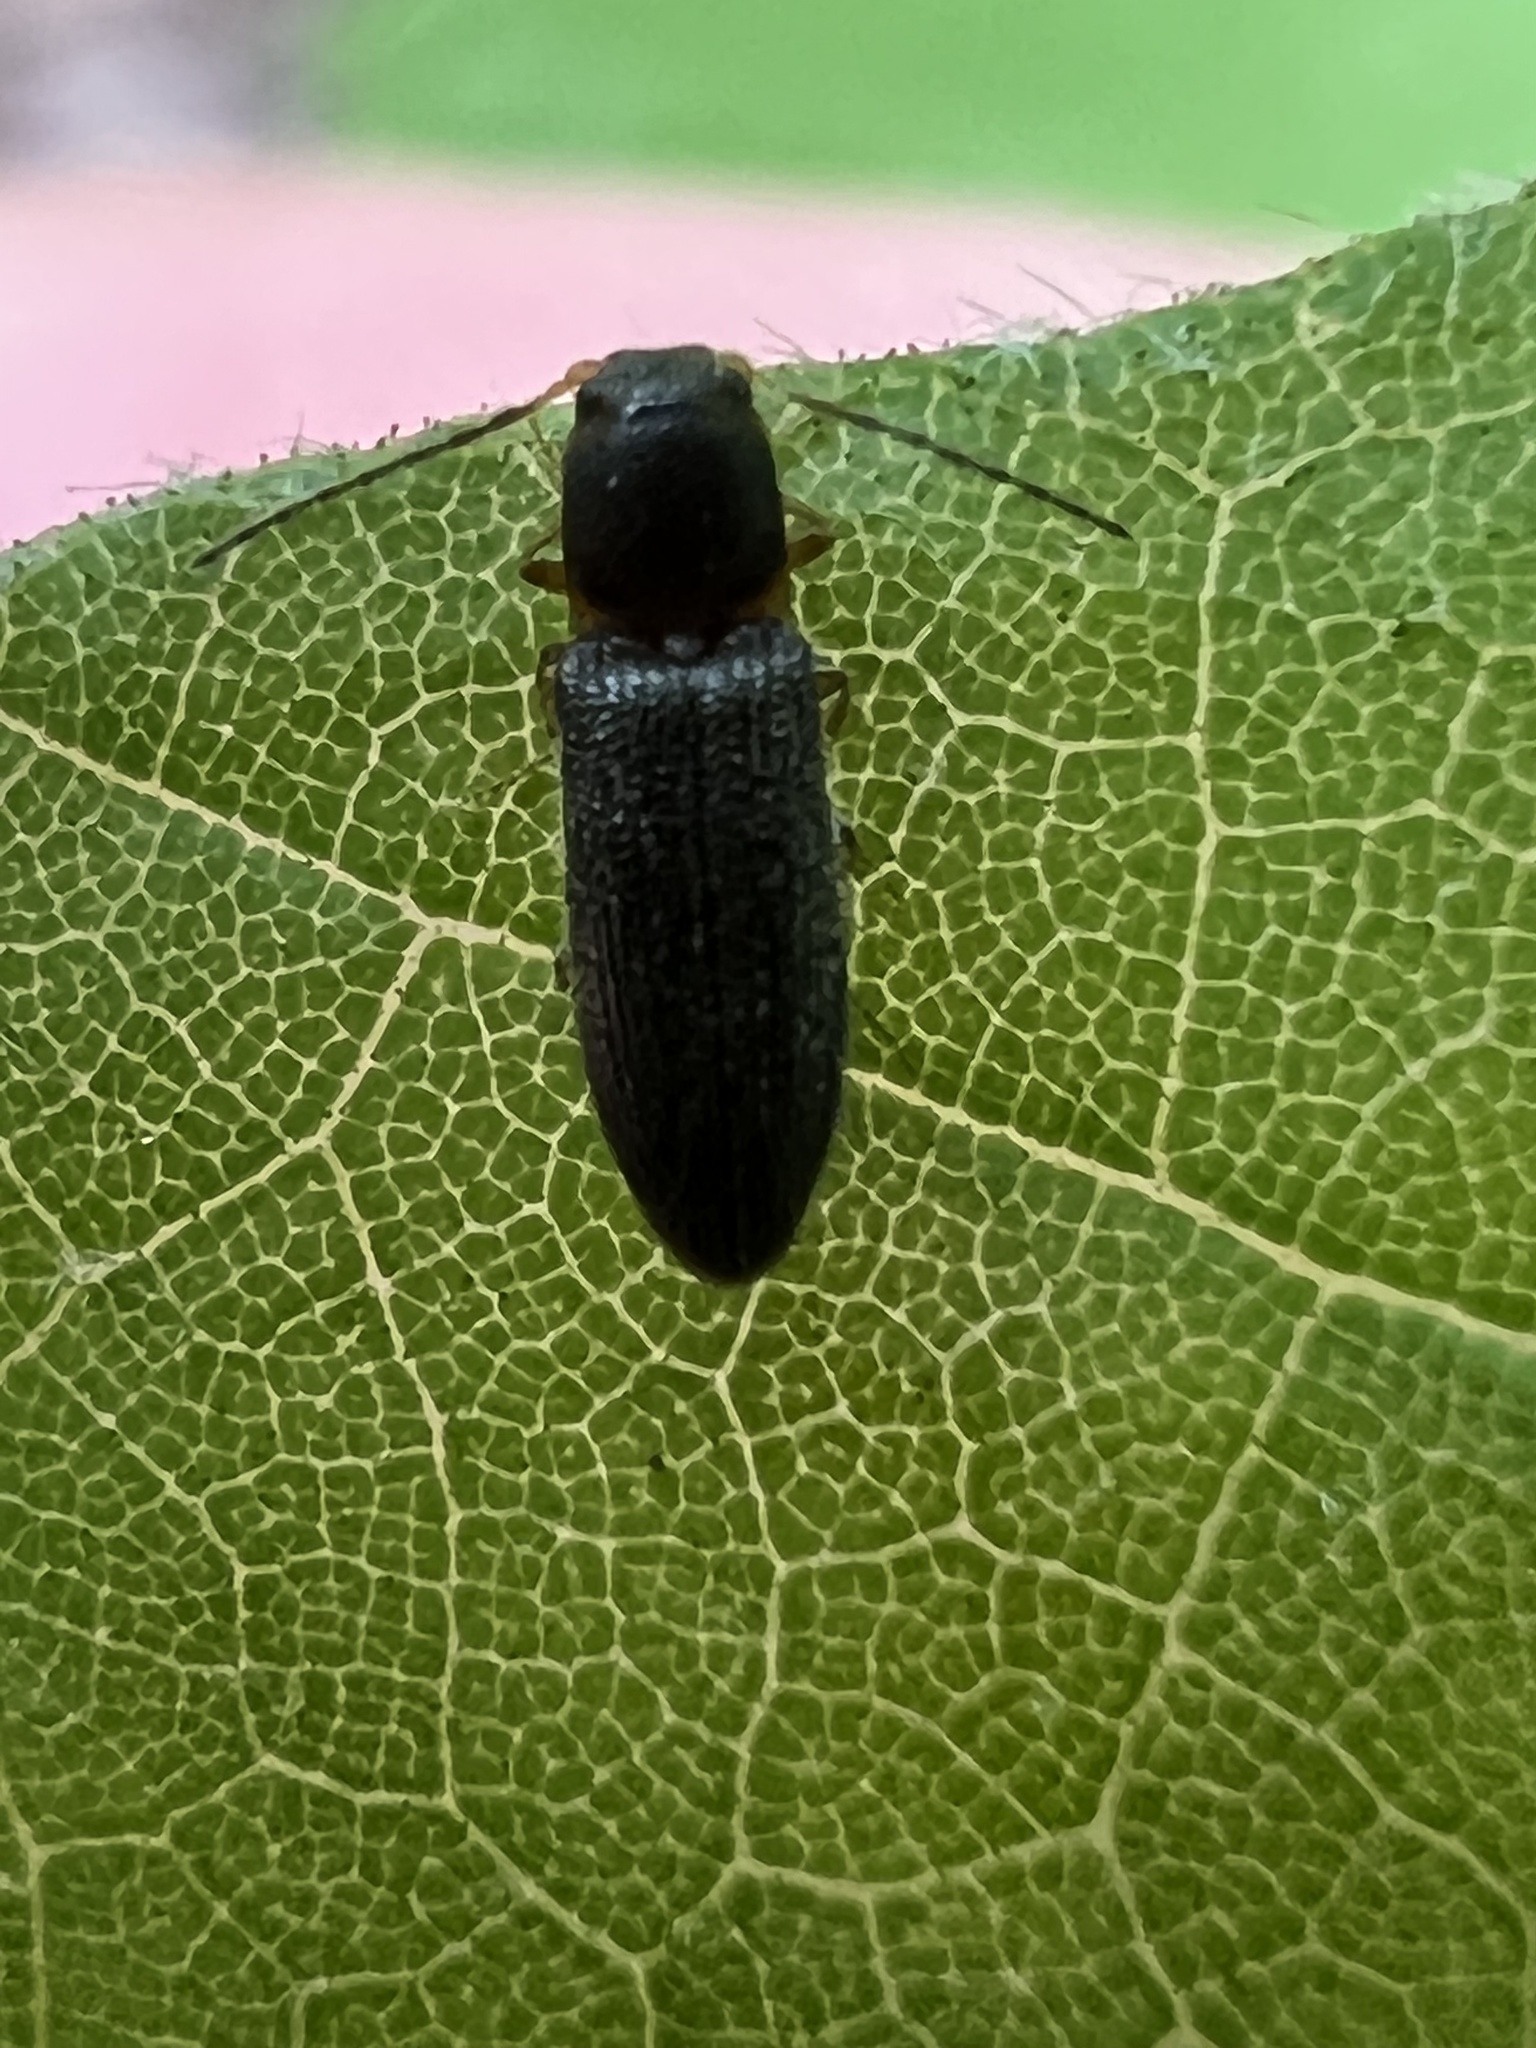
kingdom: Animalia
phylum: Arthropoda
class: Insecta
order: Coleoptera
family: Elateridae
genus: Limonius
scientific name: Limonius quercinus
